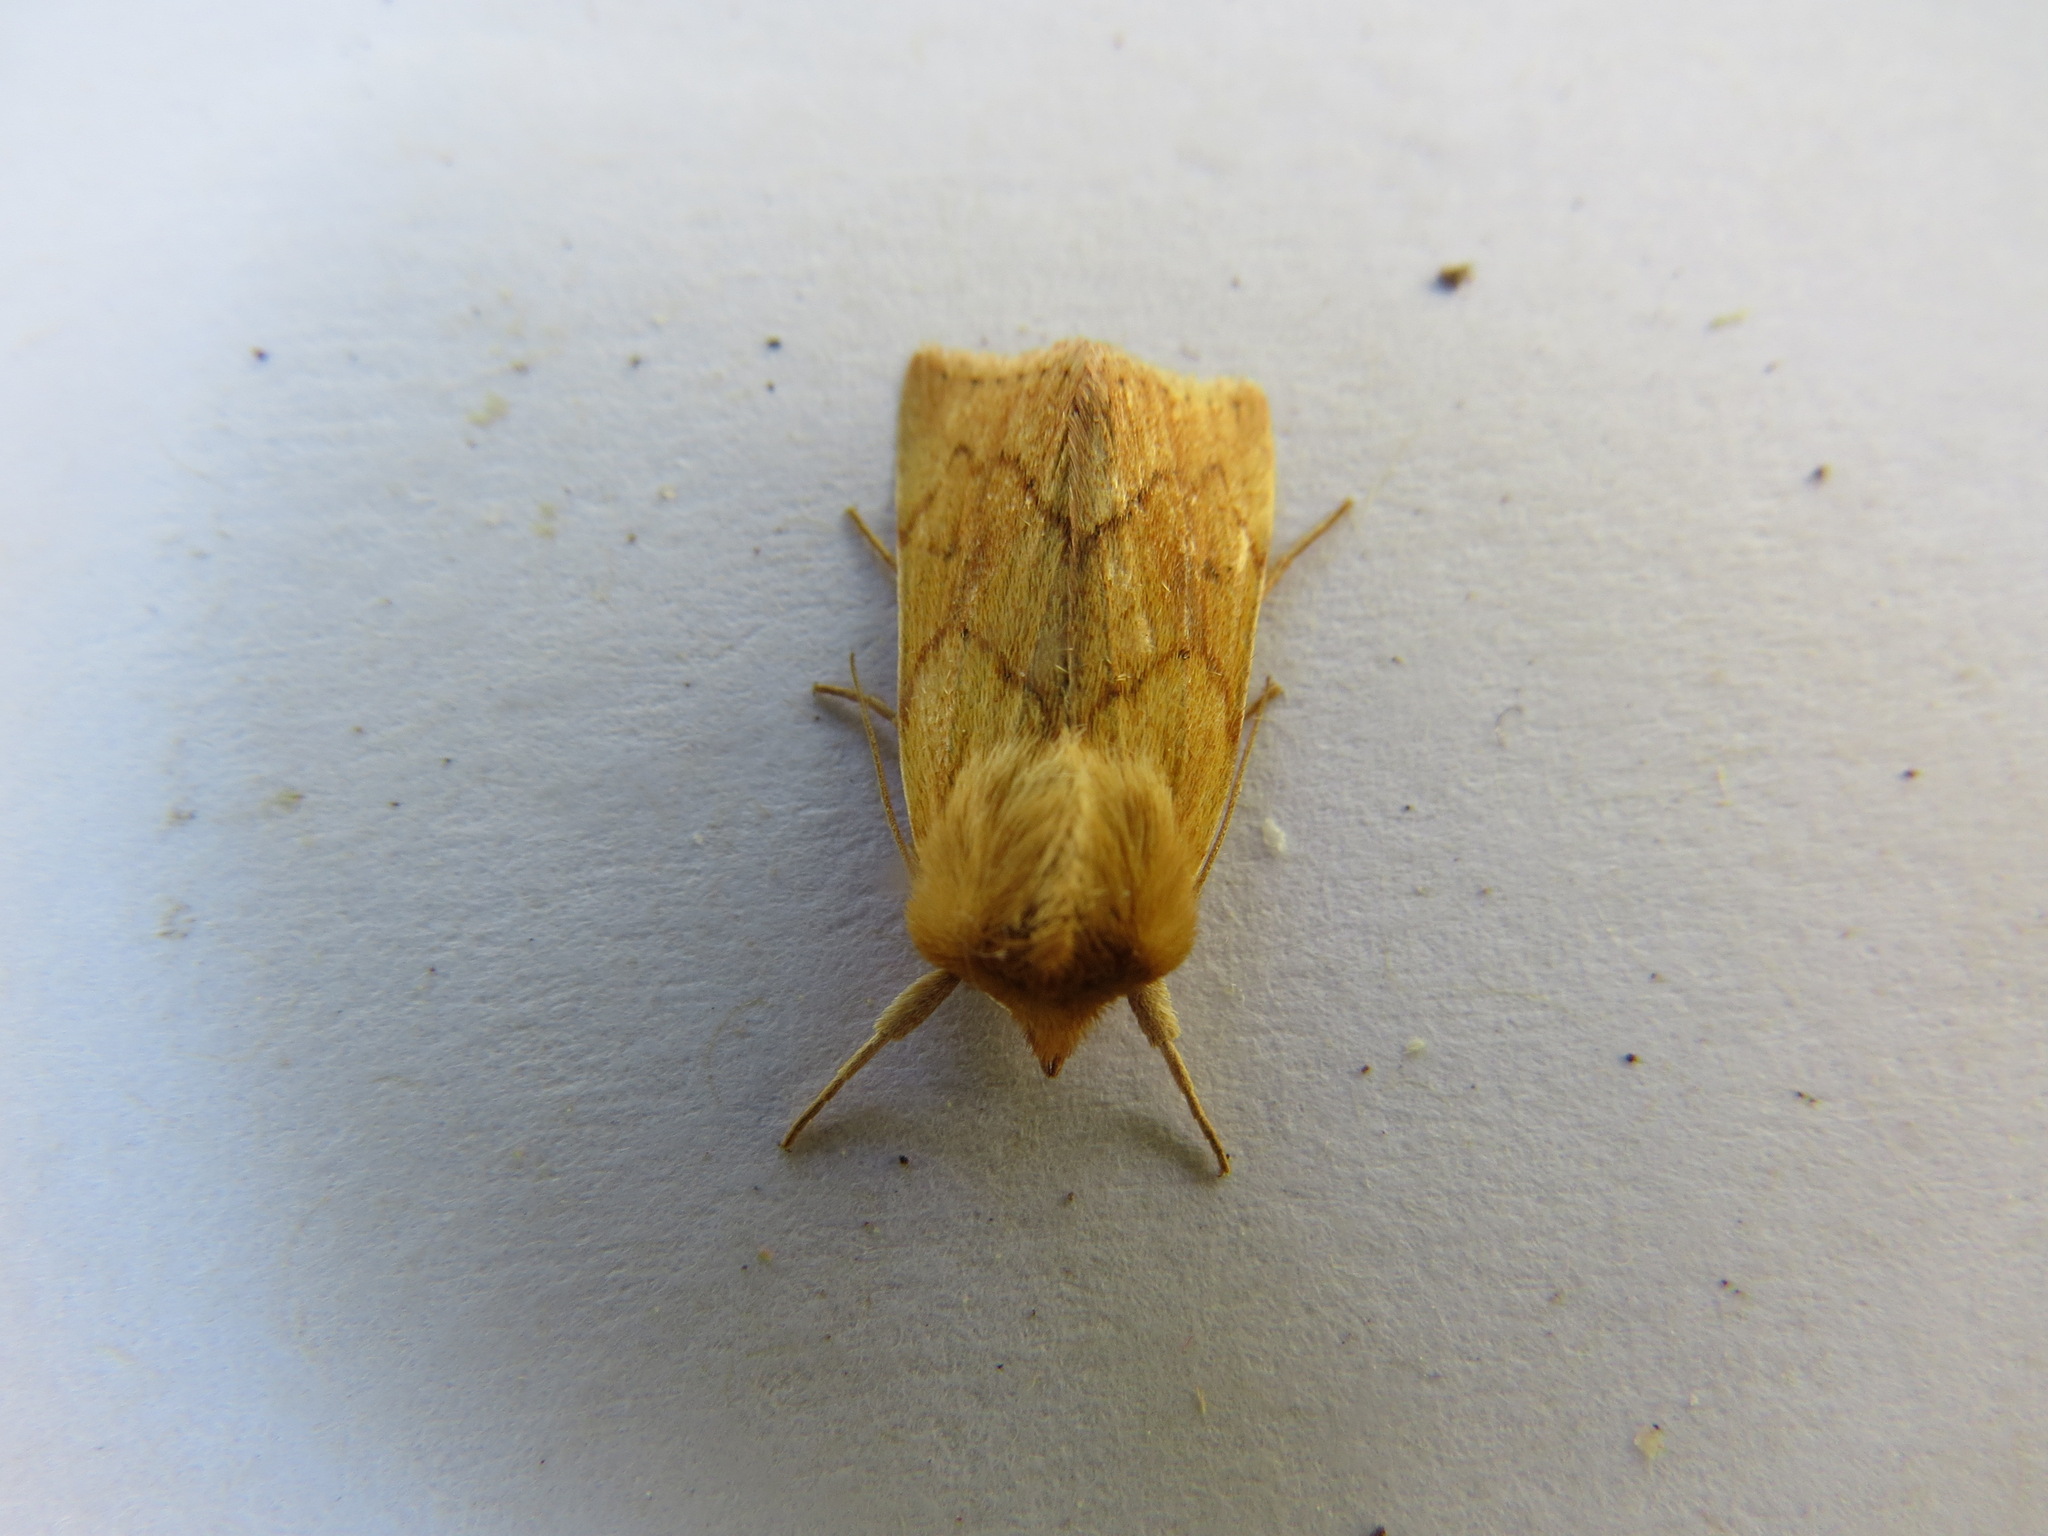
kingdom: Animalia
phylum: Arthropoda
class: Insecta
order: Lepidoptera
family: Noctuidae
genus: Zosteropoda
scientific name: Zosteropoda hirtipes
